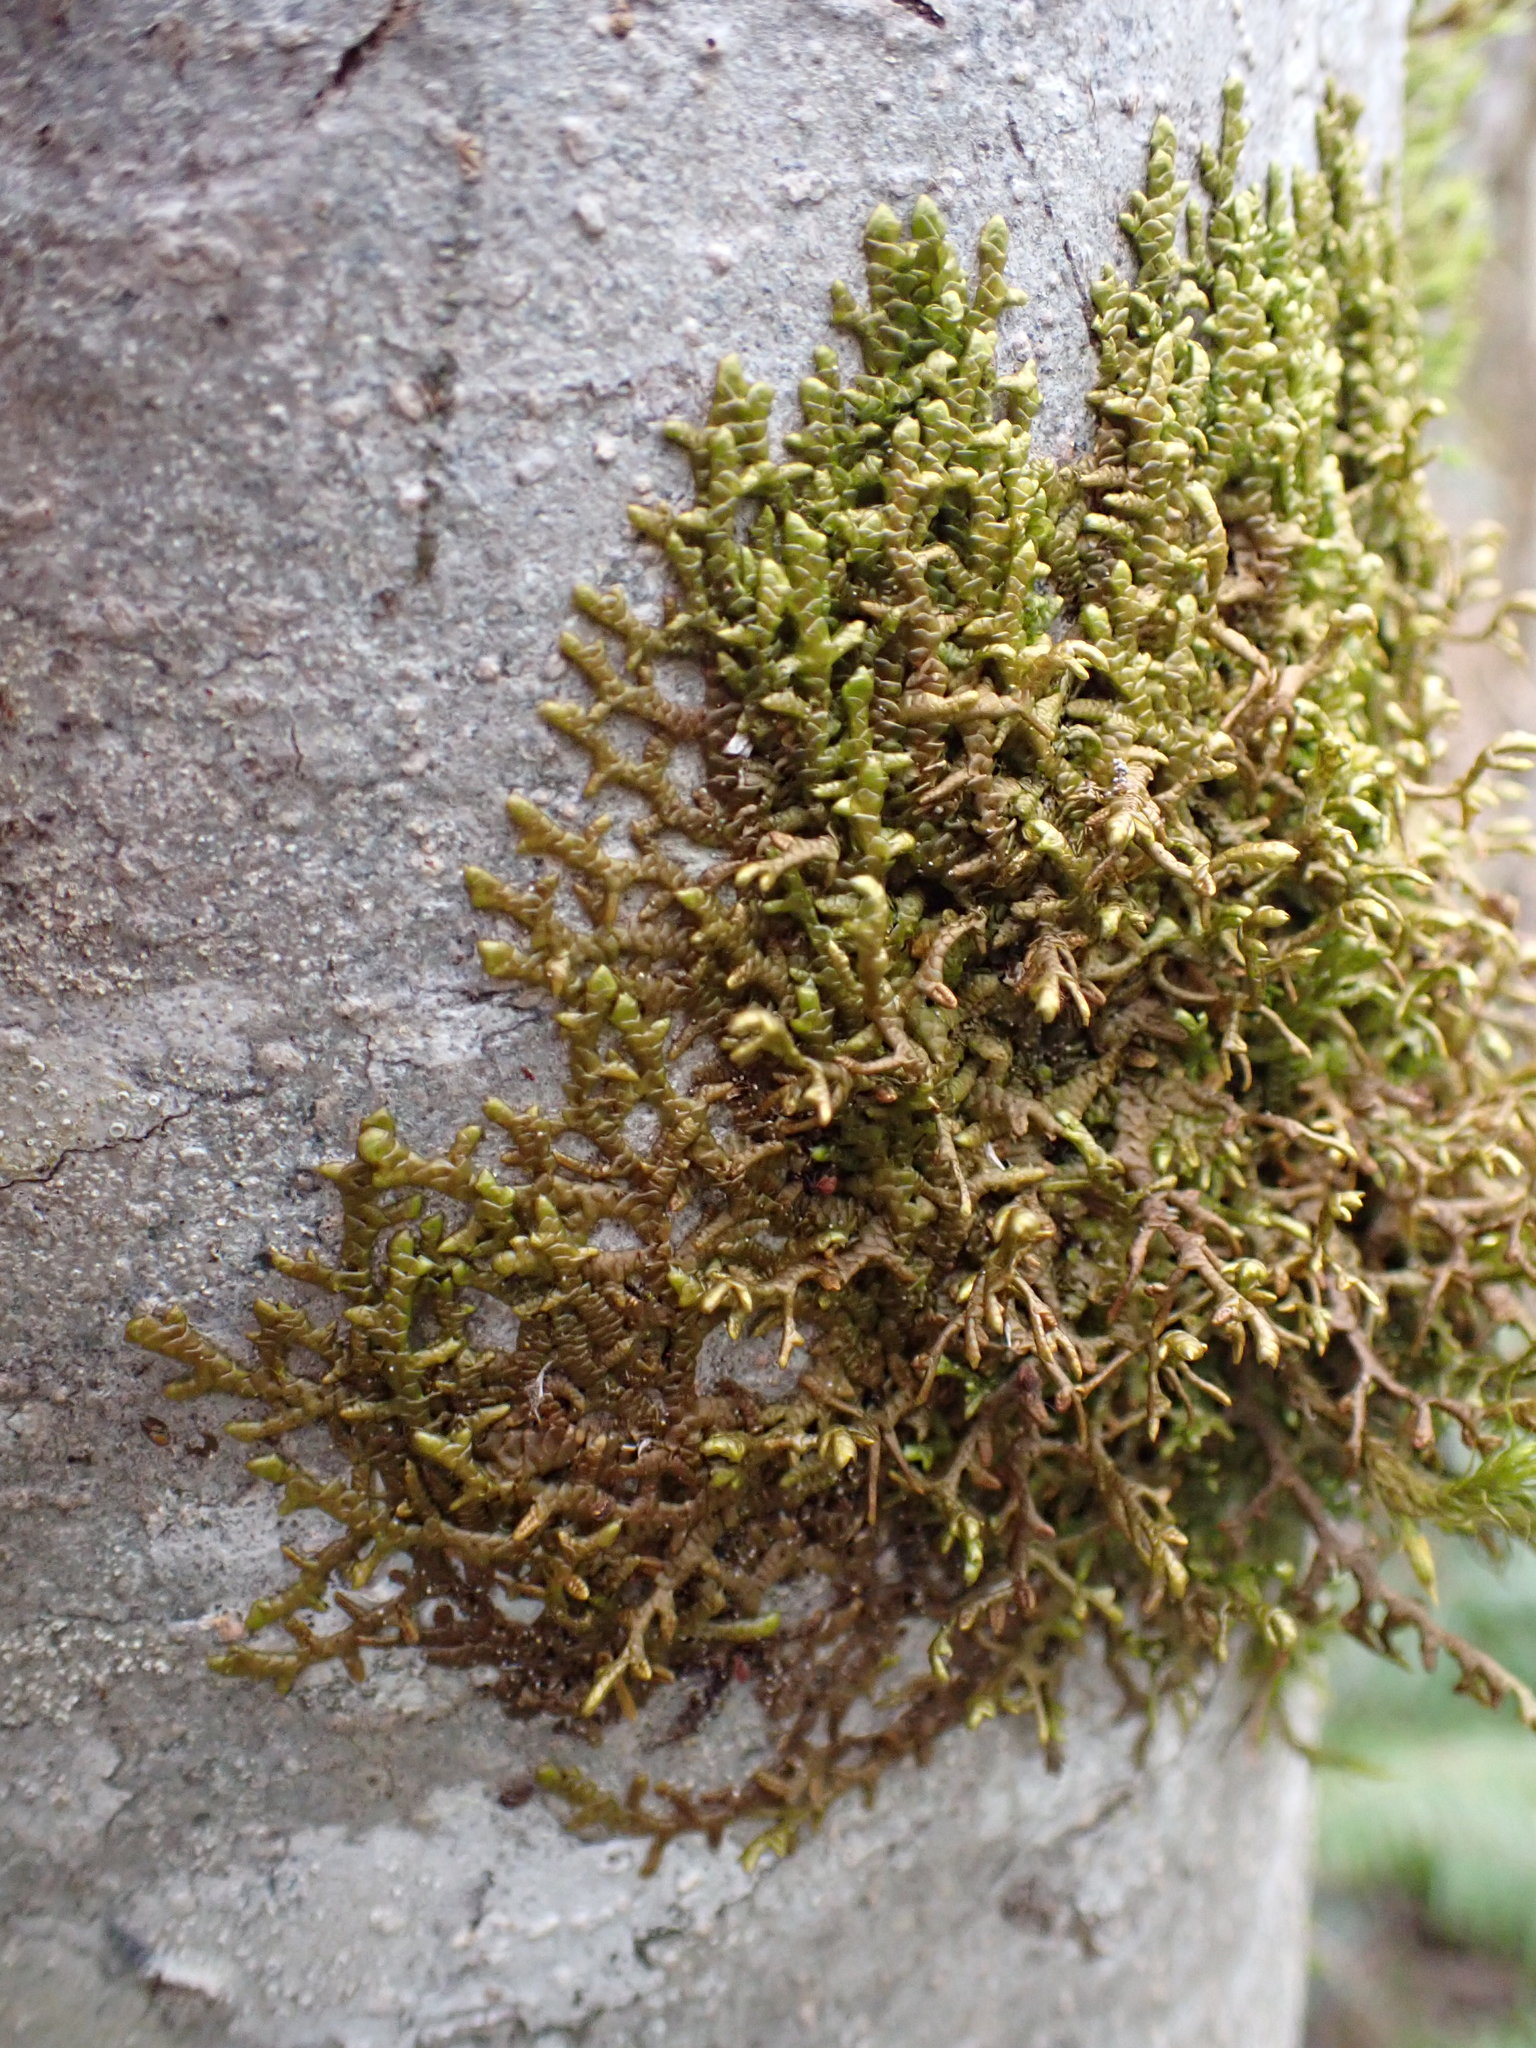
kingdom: Plantae
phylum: Marchantiophyta
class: Jungermanniopsida
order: Porellales
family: Porellaceae
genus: Porella
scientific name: Porella navicularis
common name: Tree ruffle liverwort
